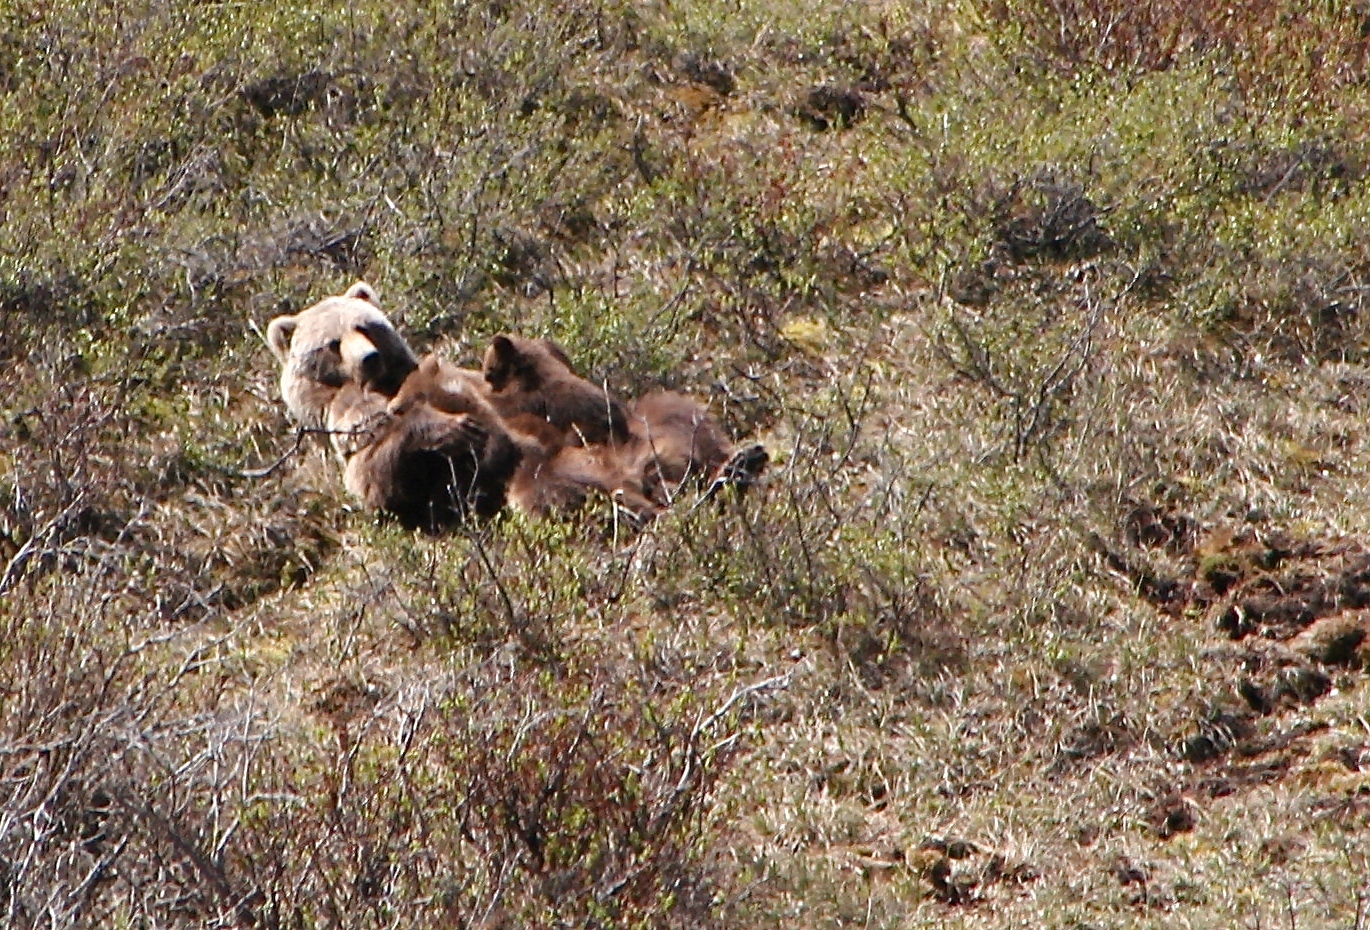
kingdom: Animalia
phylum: Chordata
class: Mammalia
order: Carnivora
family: Ursidae
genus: Ursus
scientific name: Ursus arctos
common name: Brown bear
